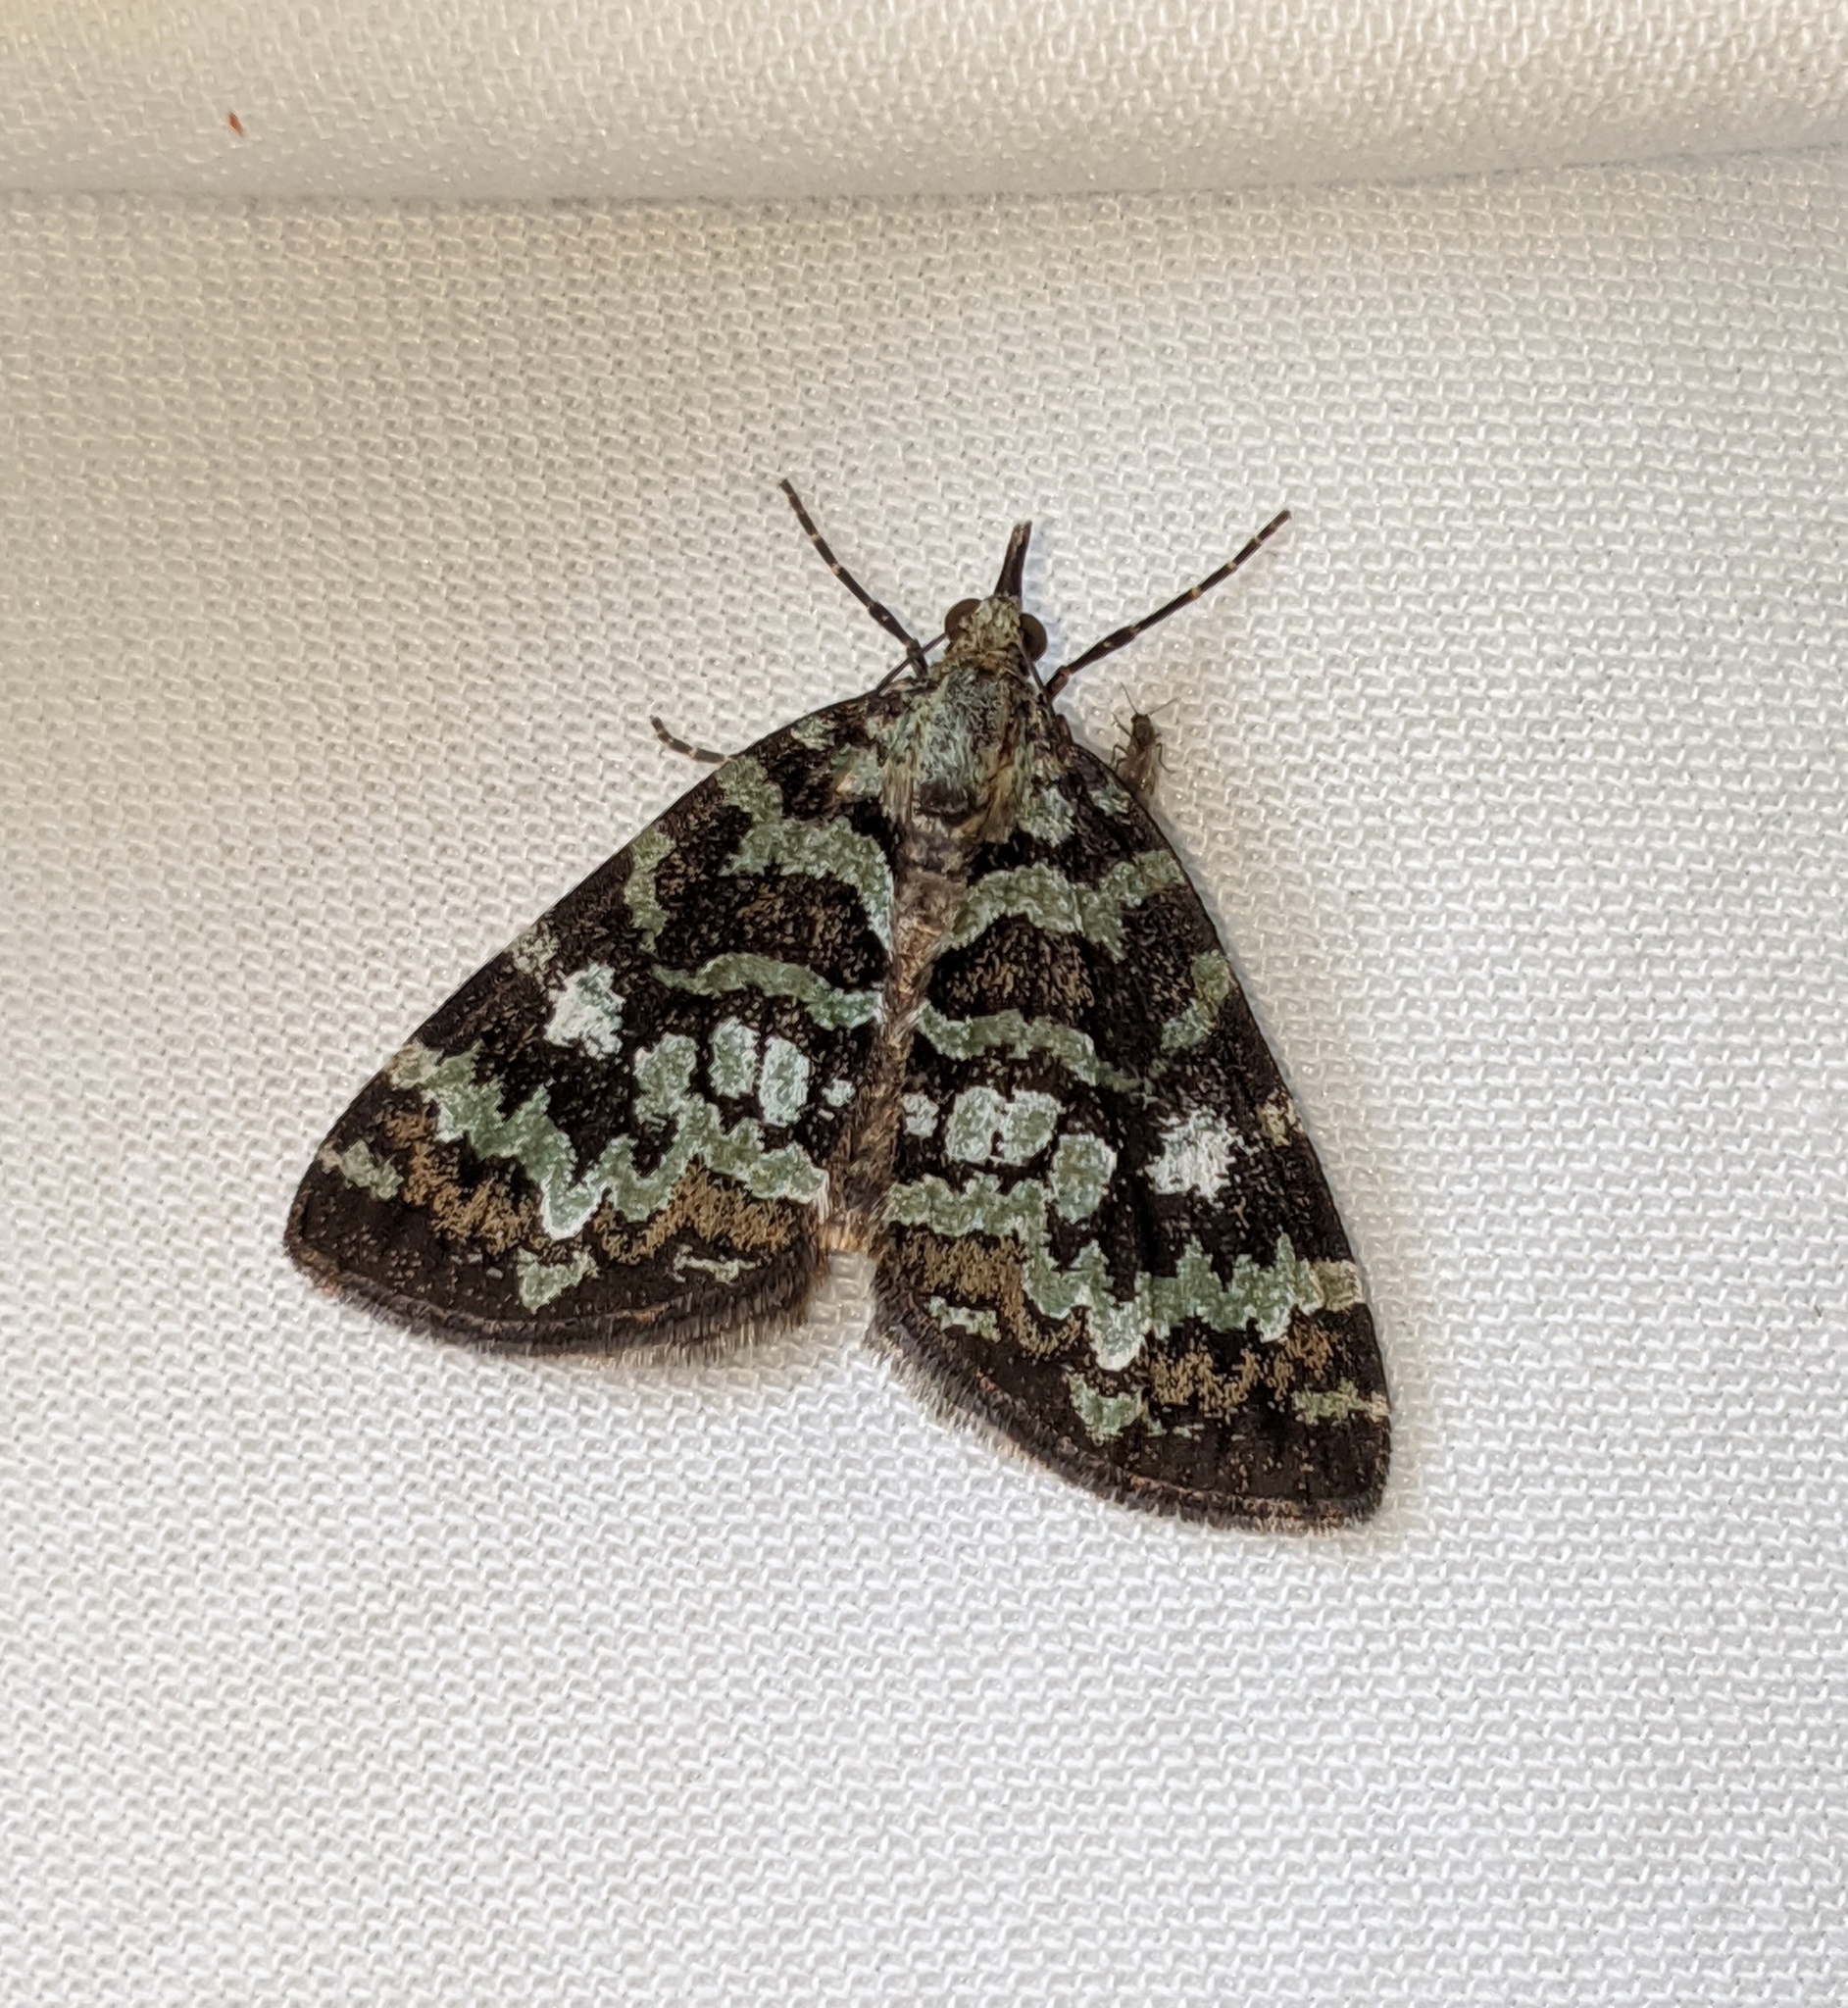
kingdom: Animalia
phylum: Arthropoda
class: Insecta
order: Lepidoptera
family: Geometridae
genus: Hydriomena
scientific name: Hydriomena speciosata
